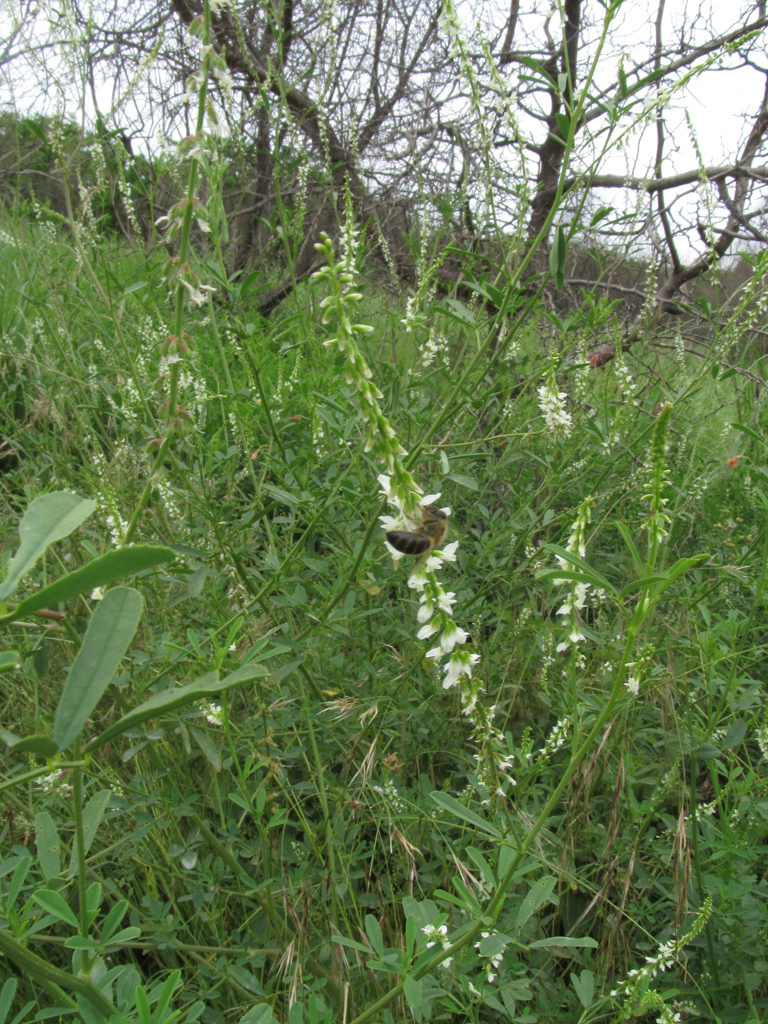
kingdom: Plantae
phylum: Tracheophyta
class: Magnoliopsida
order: Fabales
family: Fabaceae
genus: Melilotus
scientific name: Melilotus albus
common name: White melilot
